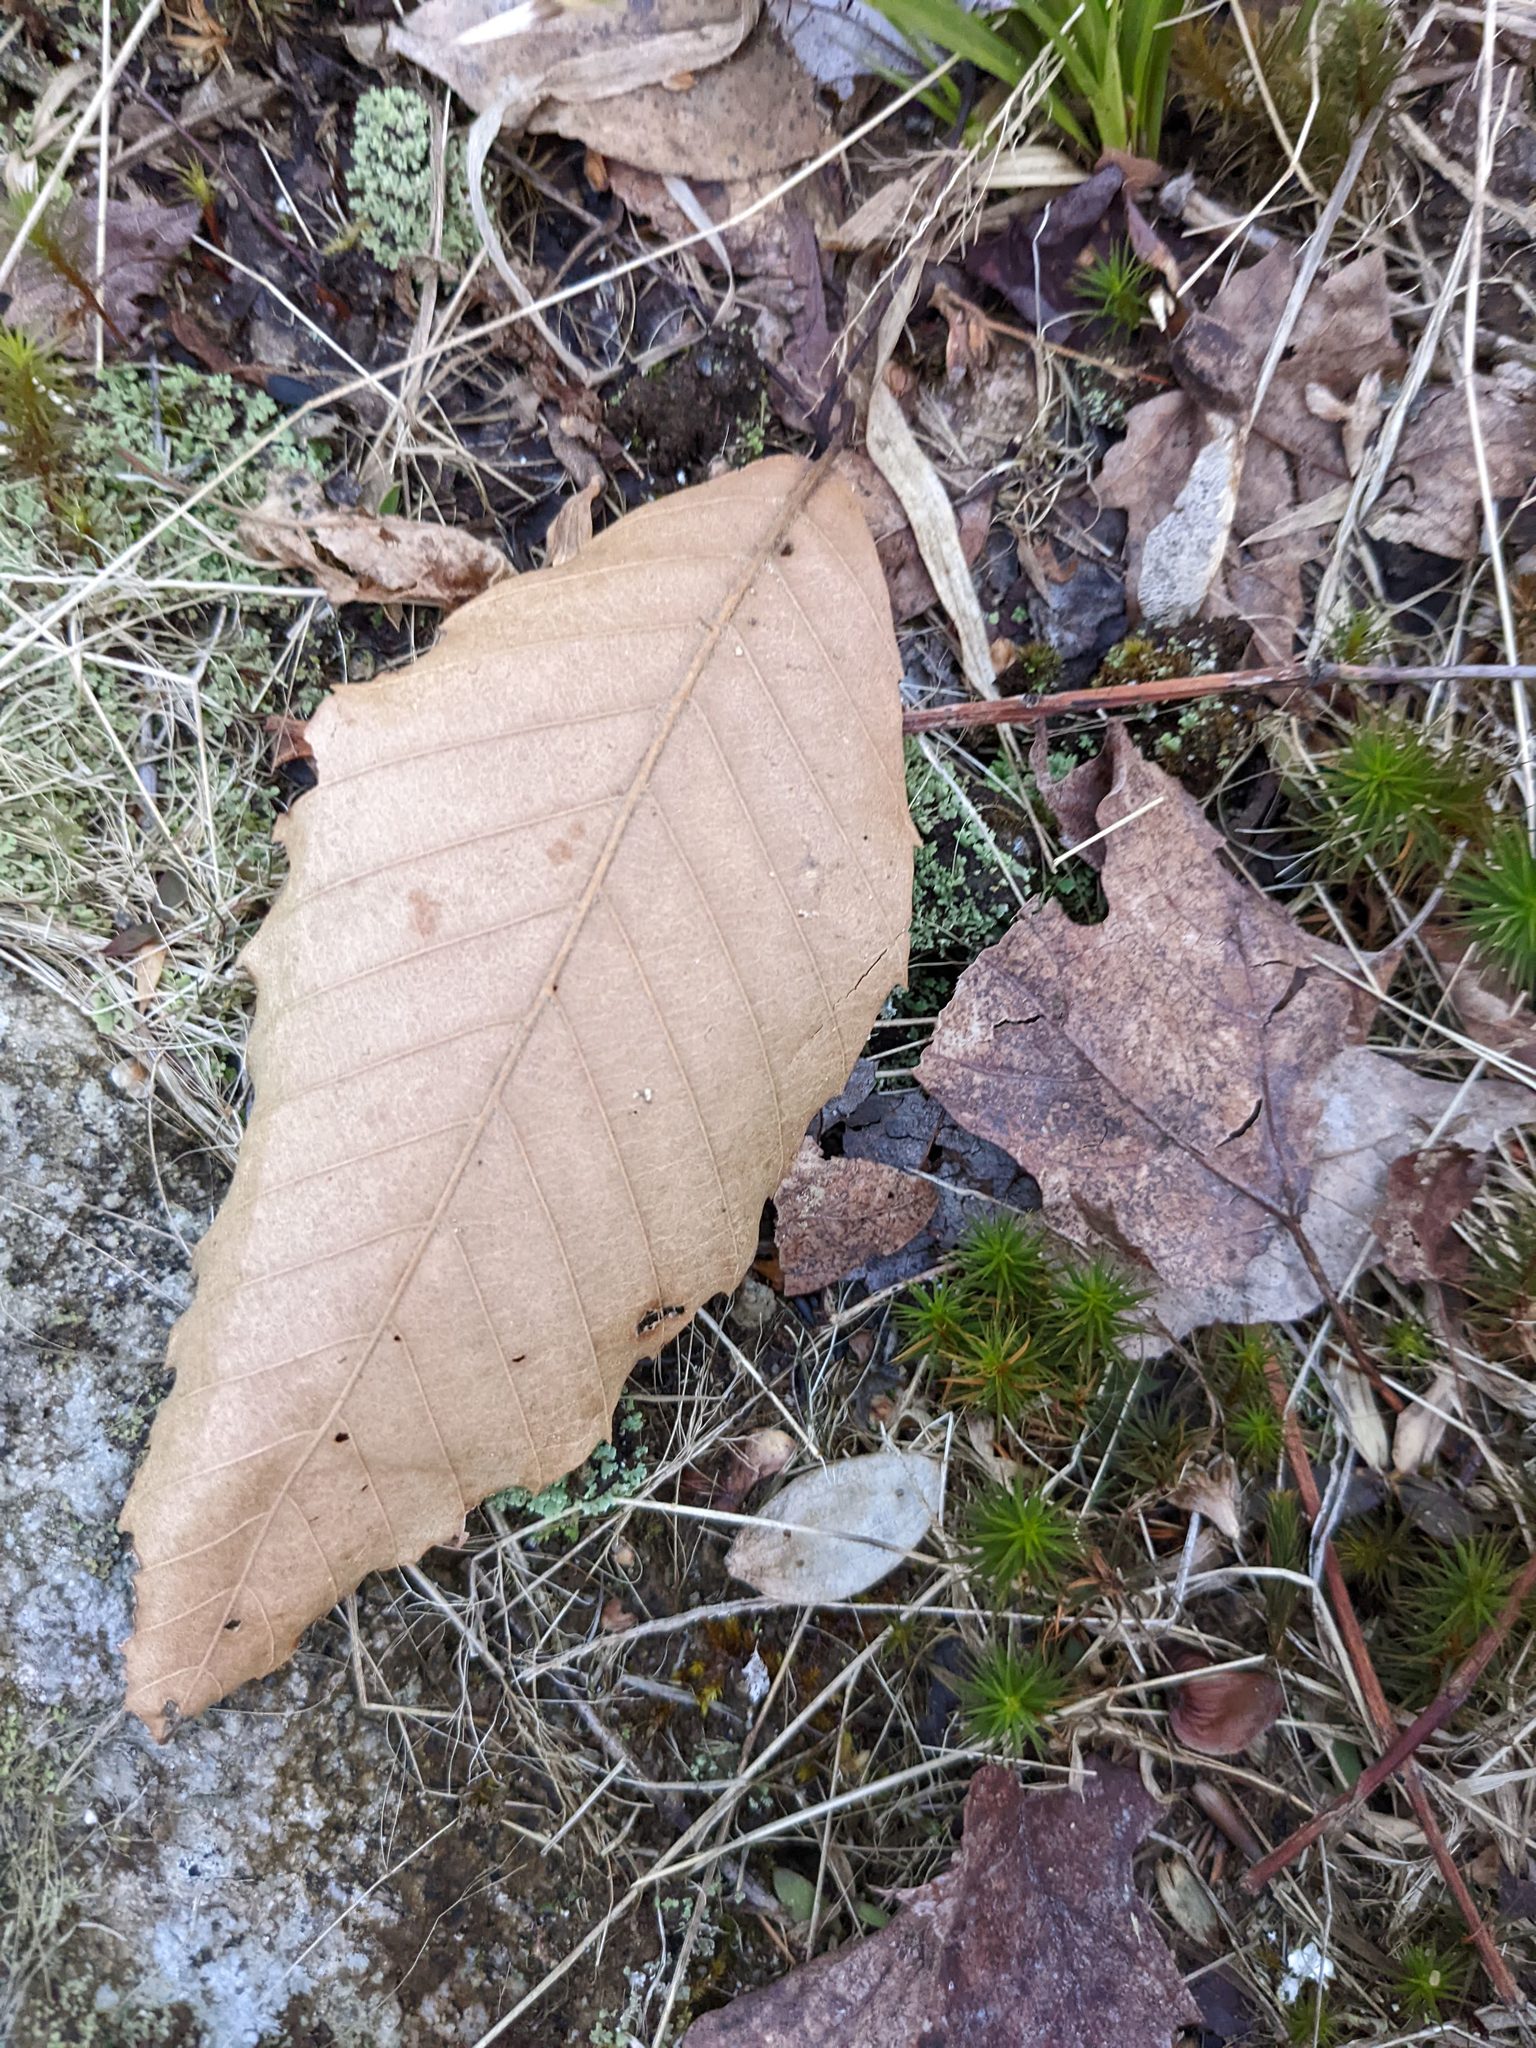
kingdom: Plantae
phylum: Tracheophyta
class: Magnoliopsida
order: Fagales
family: Fagaceae
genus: Fagus
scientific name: Fagus grandifolia
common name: American beech
